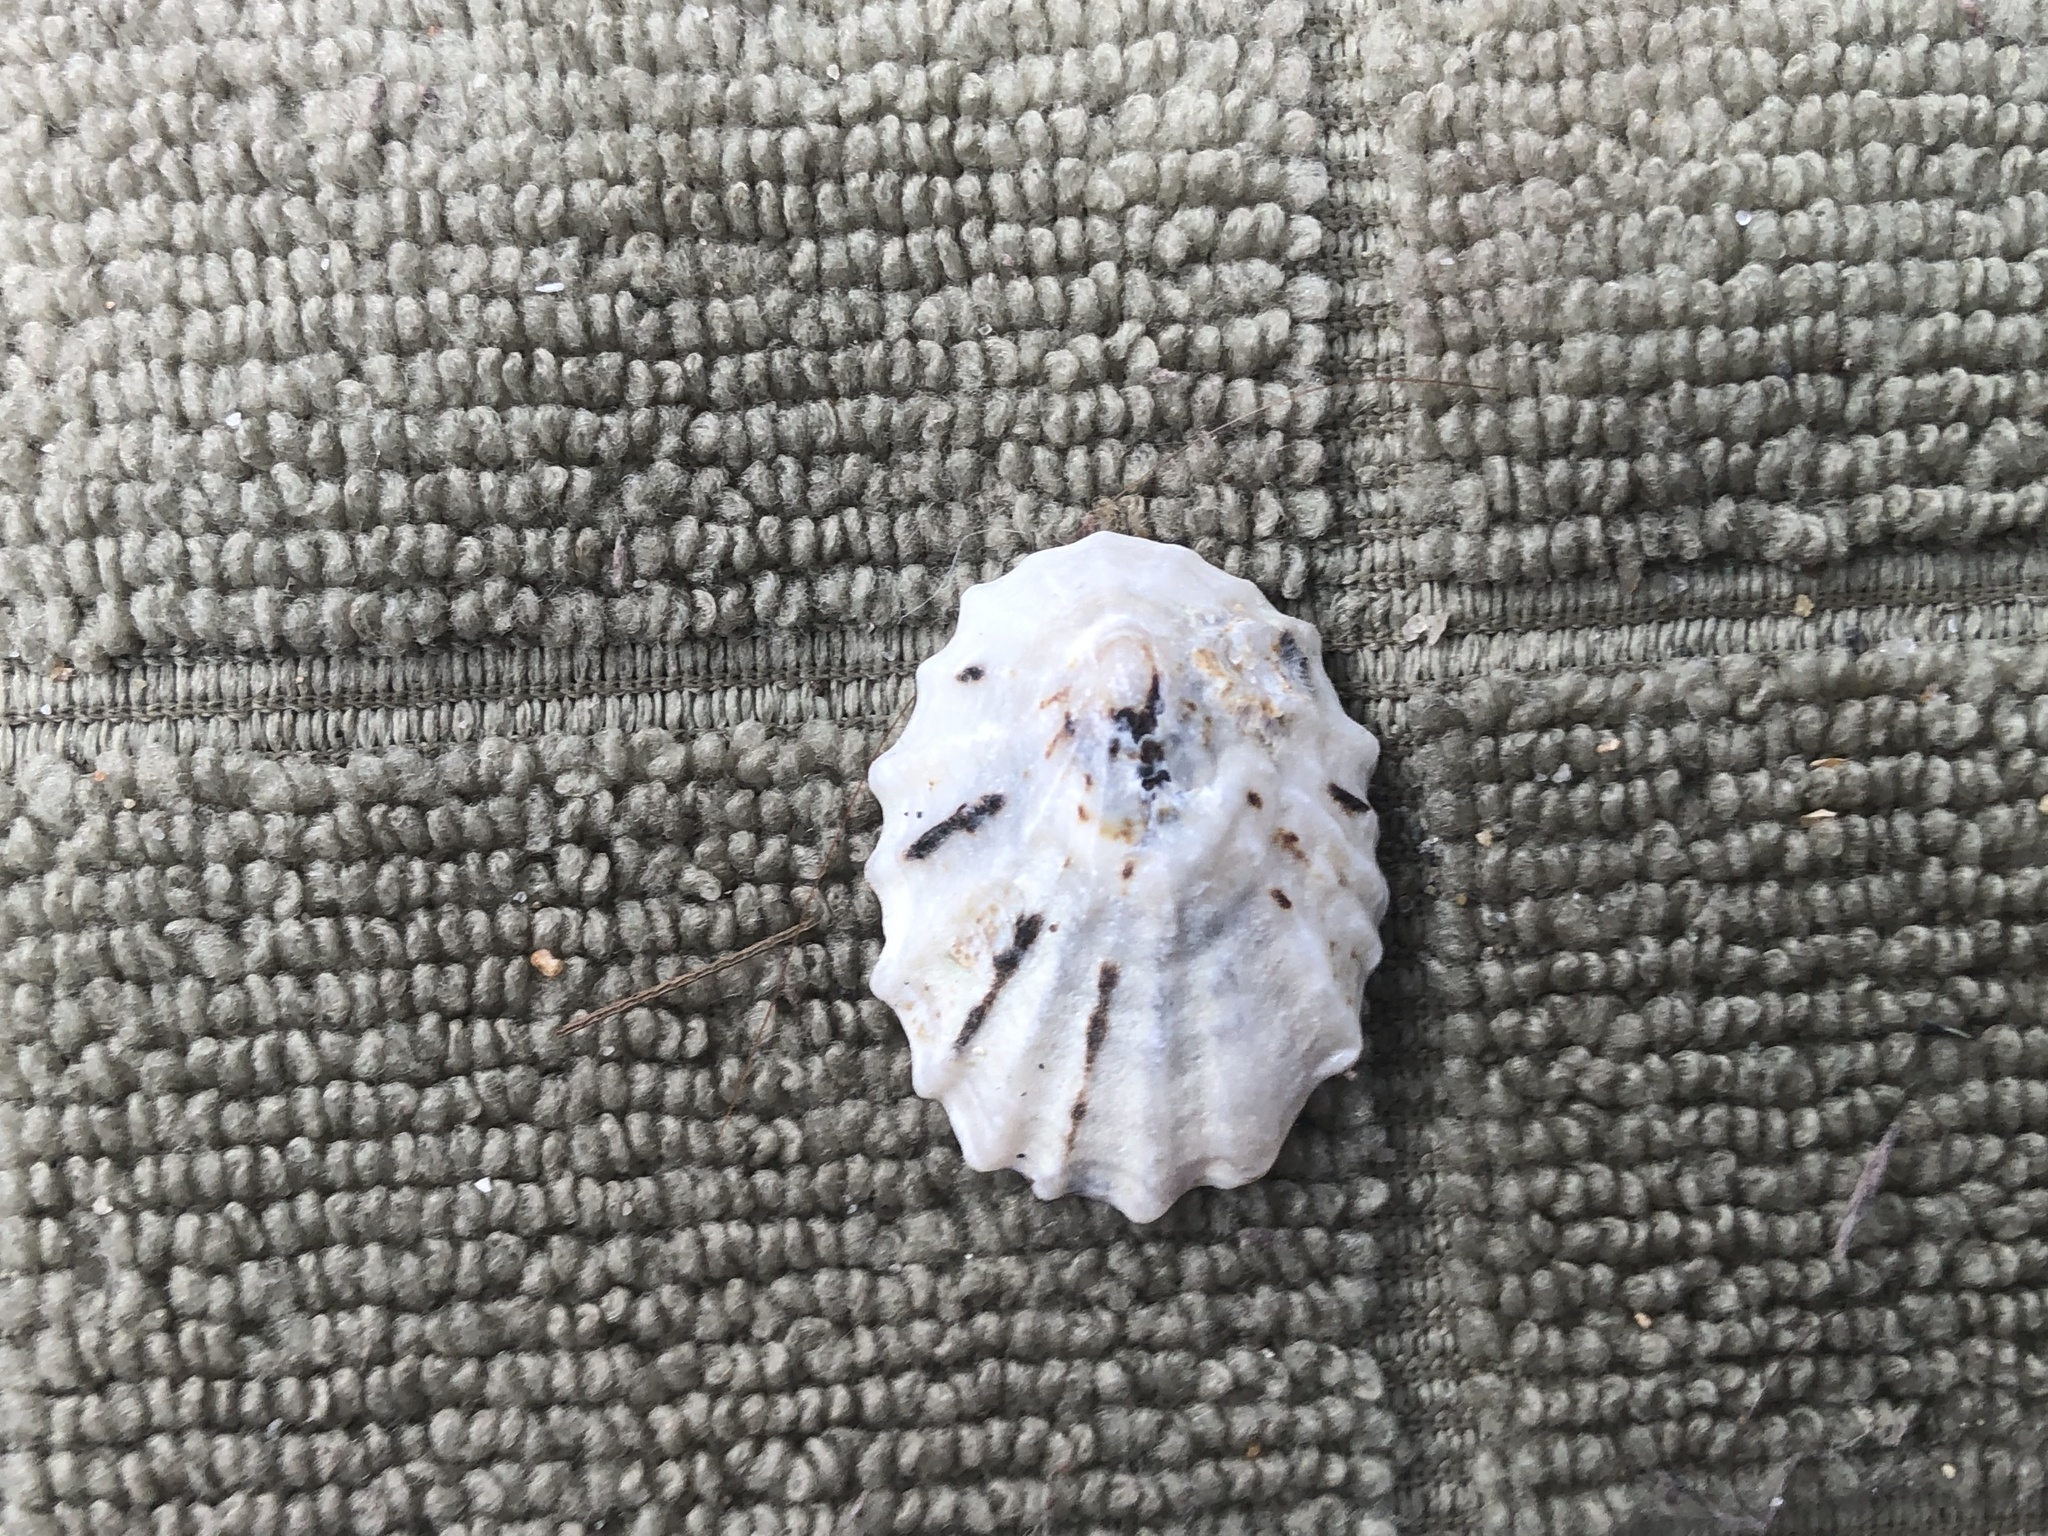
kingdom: Animalia
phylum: Mollusca
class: Gastropoda
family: Lottiidae
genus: Lottia
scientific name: Lottia scabra
